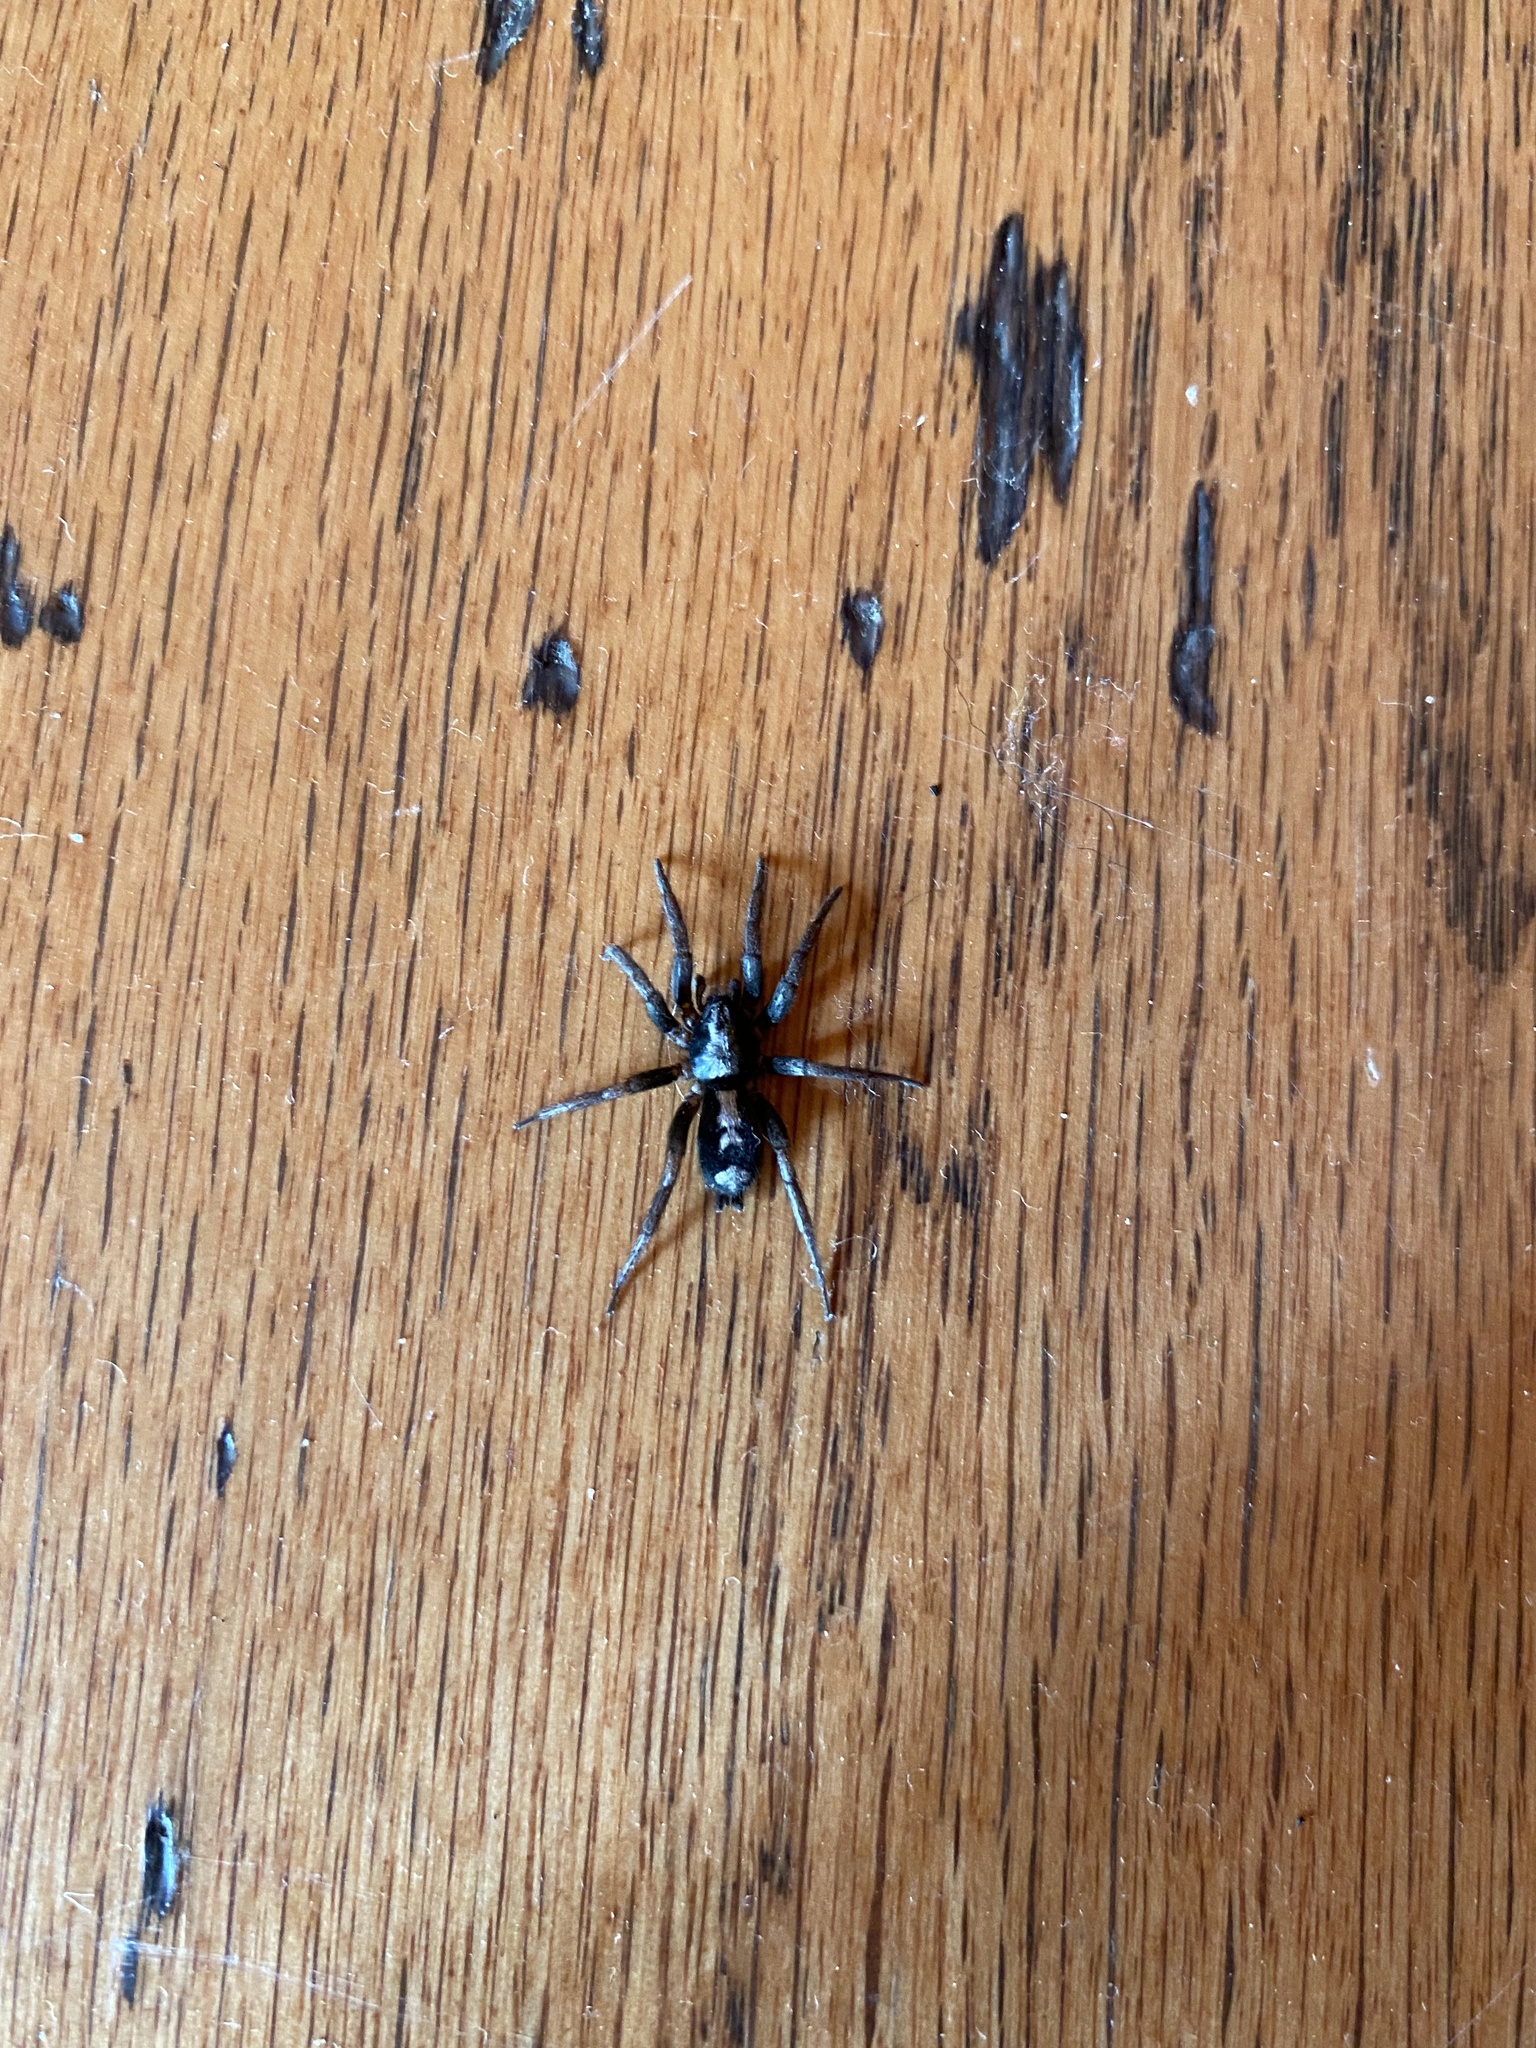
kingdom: Animalia
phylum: Arthropoda
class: Arachnida
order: Araneae
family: Gnaphosidae
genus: Herpyllus
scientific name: Herpyllus ecclesiasticus
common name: Eastern parson spider
